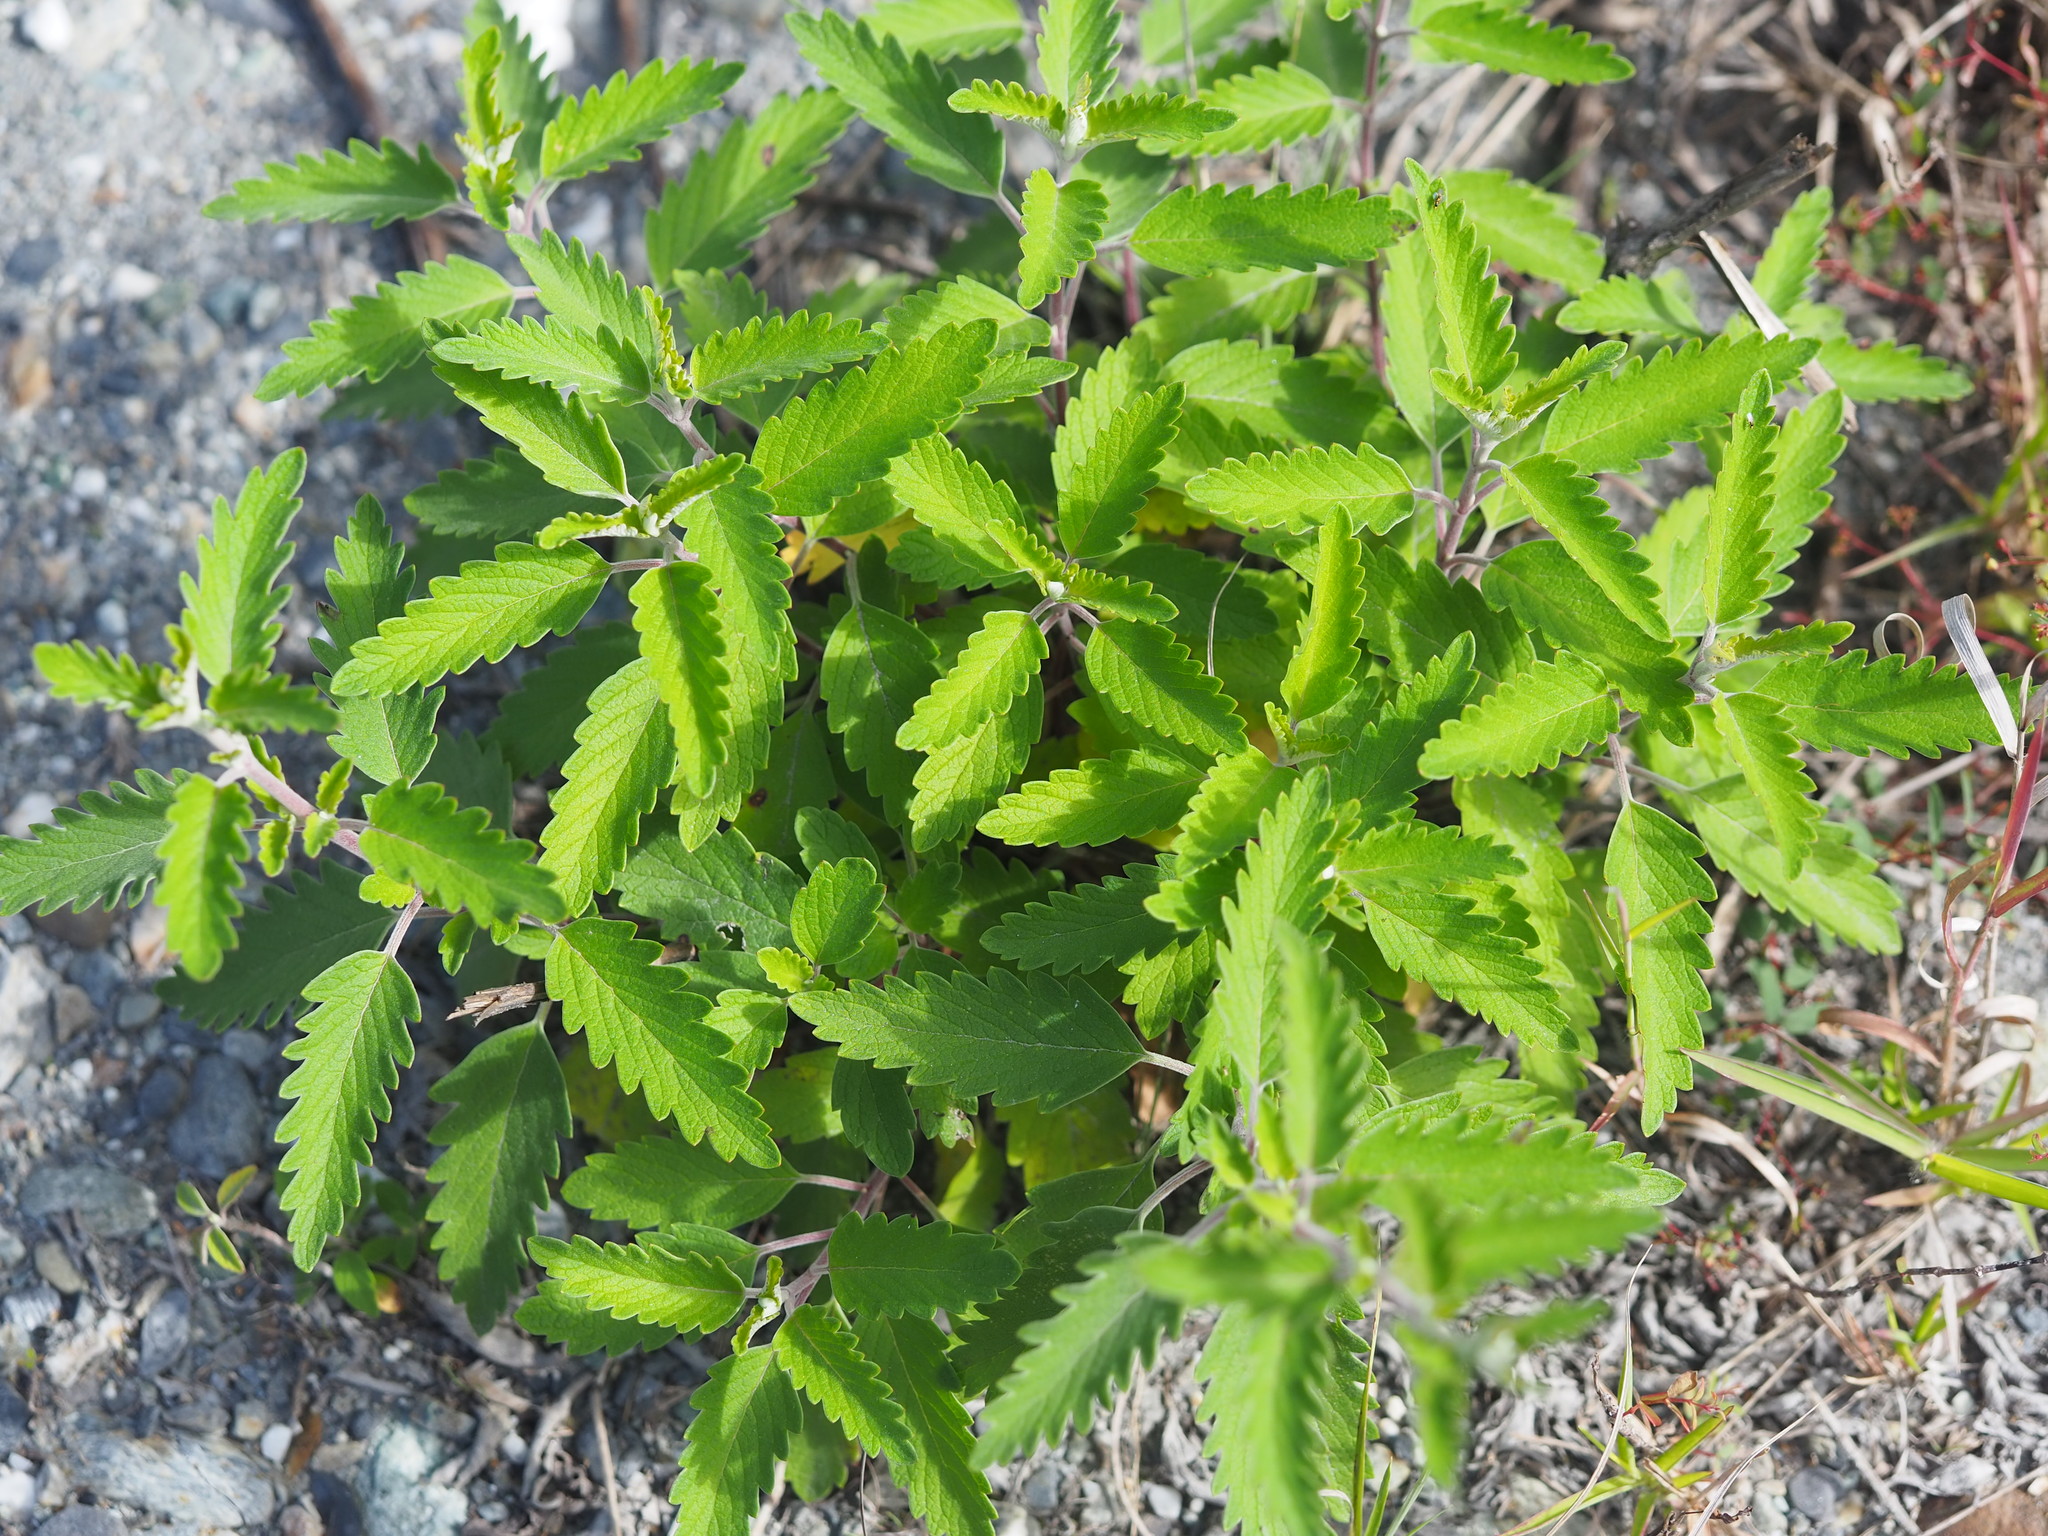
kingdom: Plantae
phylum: Tracheophyta
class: Magnoliopsida
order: Lamiales
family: Lamiaceae
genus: Caryopteris
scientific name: Caryopteris incana
